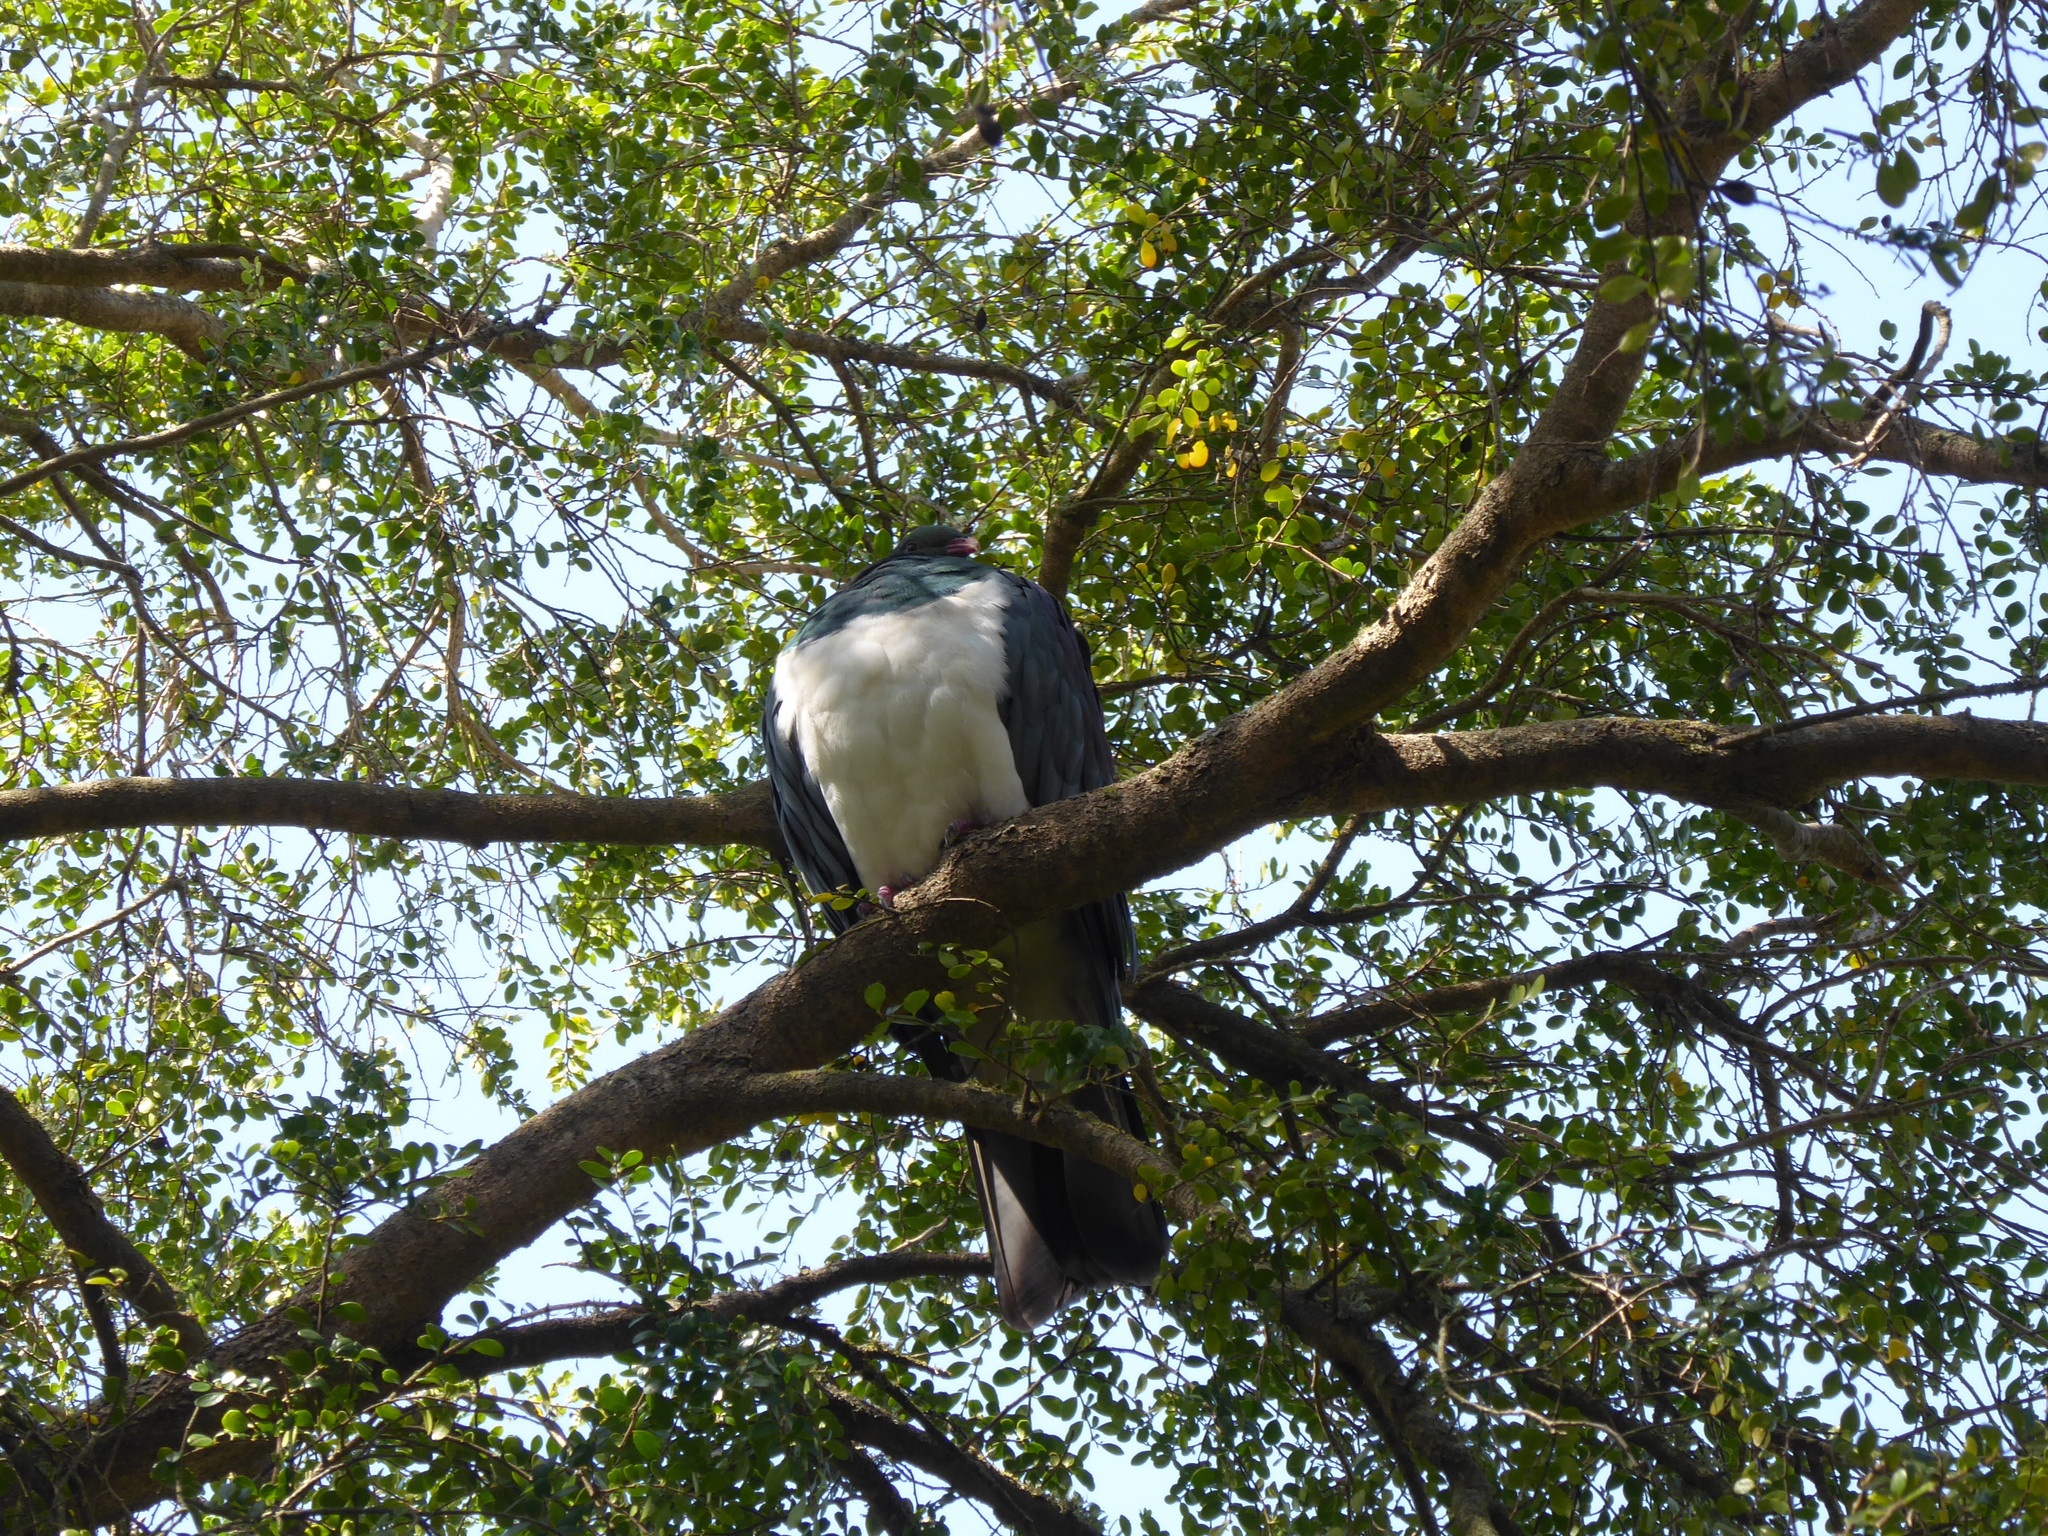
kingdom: Animalia
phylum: Chordata
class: Aves
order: Columbiformes
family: Columbidae
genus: Hemiphaga
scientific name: Hemiphaga novaeseelandiae
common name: New zealand pigeon
